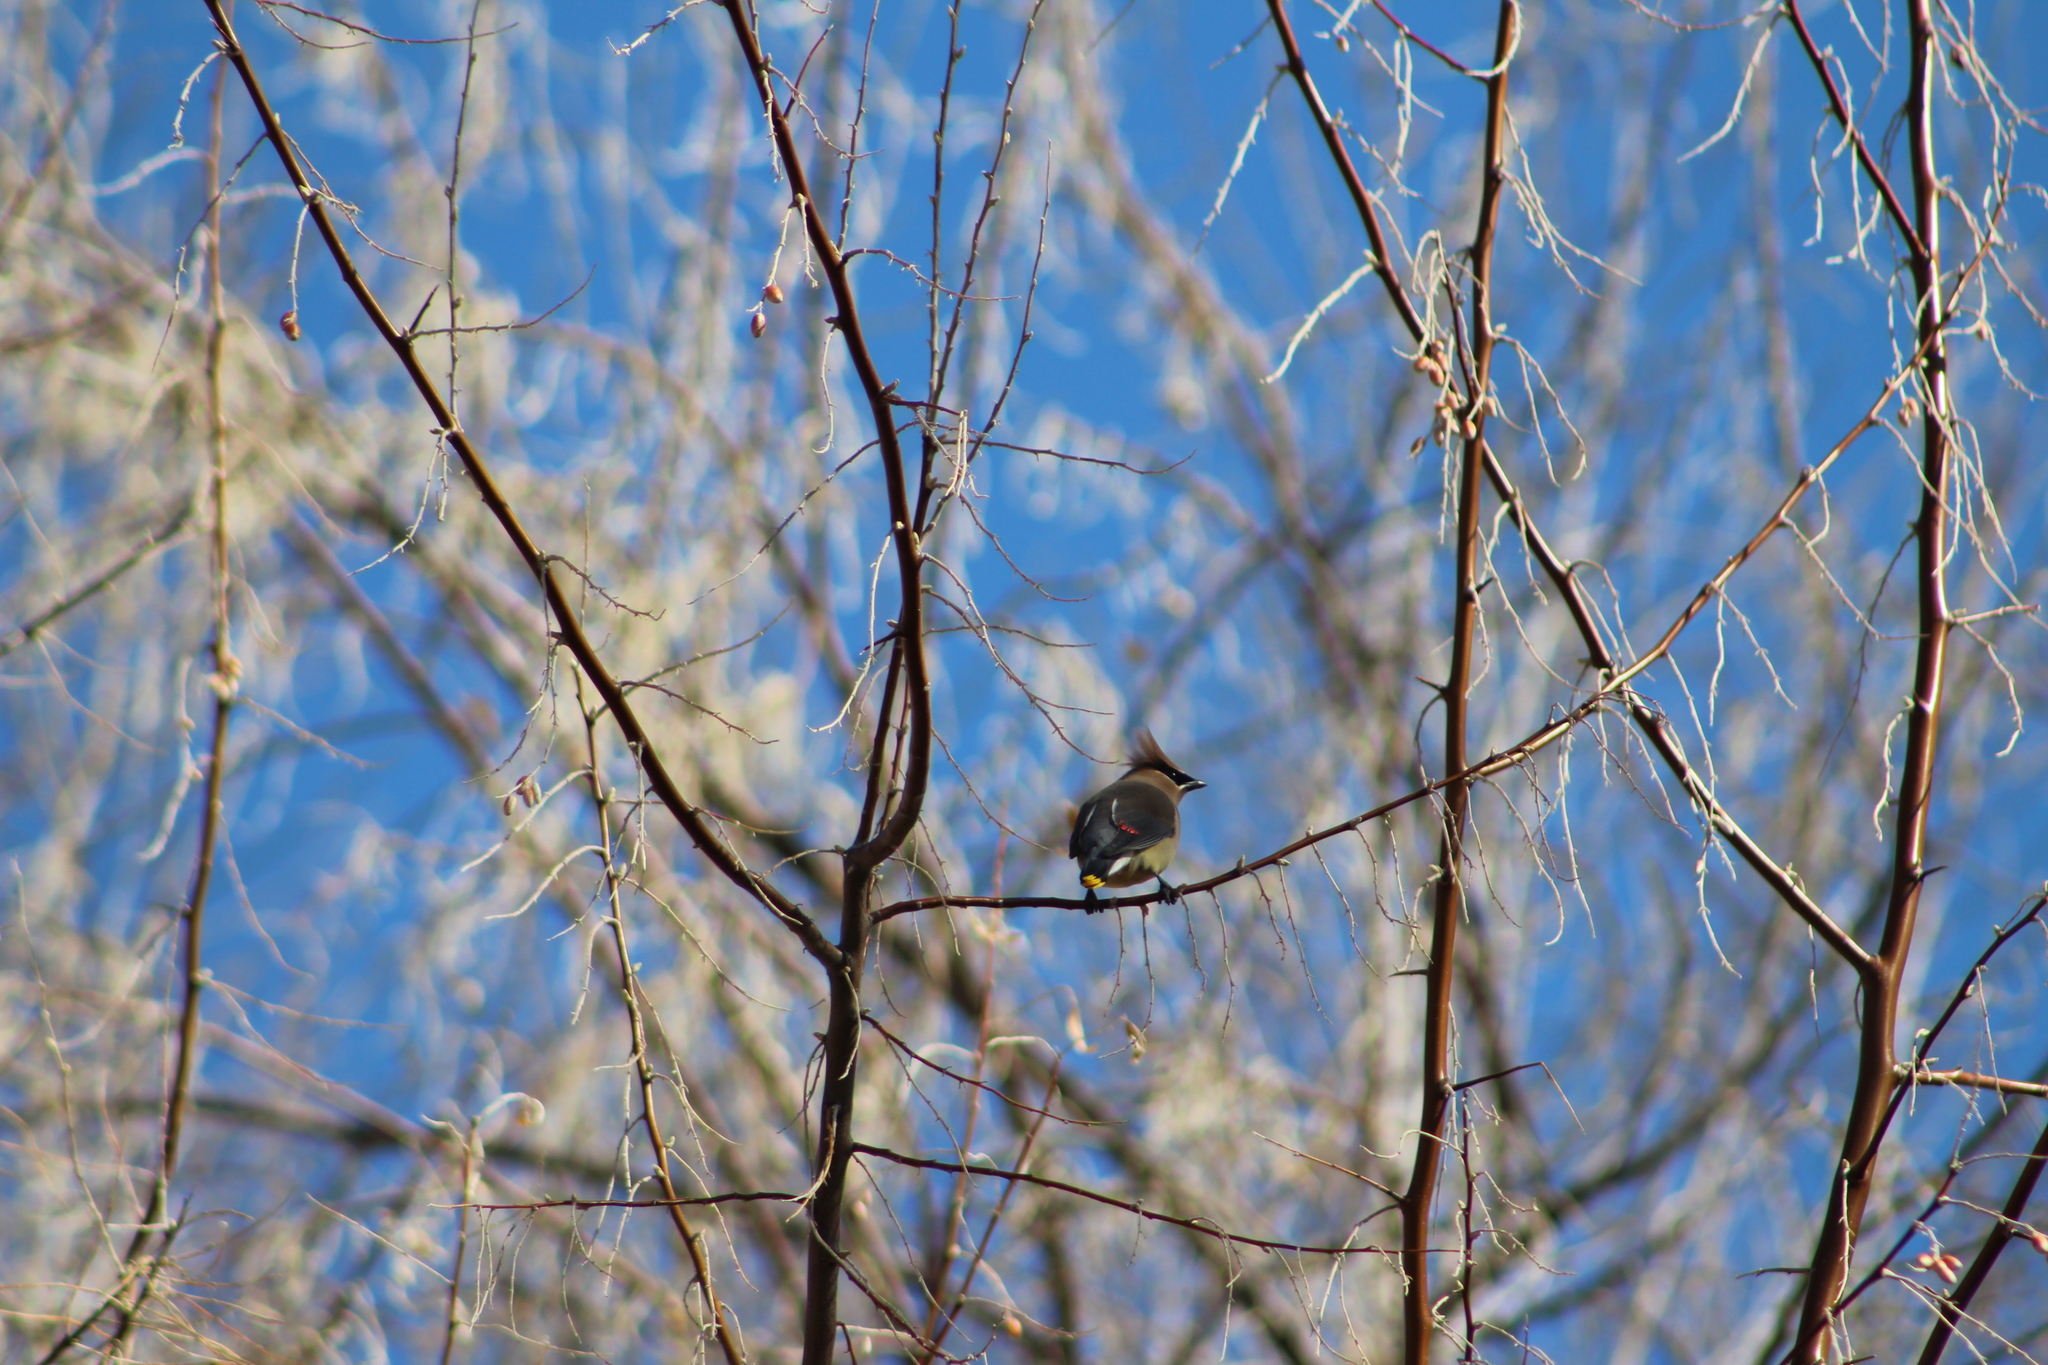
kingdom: Animalia
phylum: Chordata
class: Aves
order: Passeriformes
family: Bombycillidae
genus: Bombycilla
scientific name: Bombycilla cedrorum
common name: Cedar waxwing
